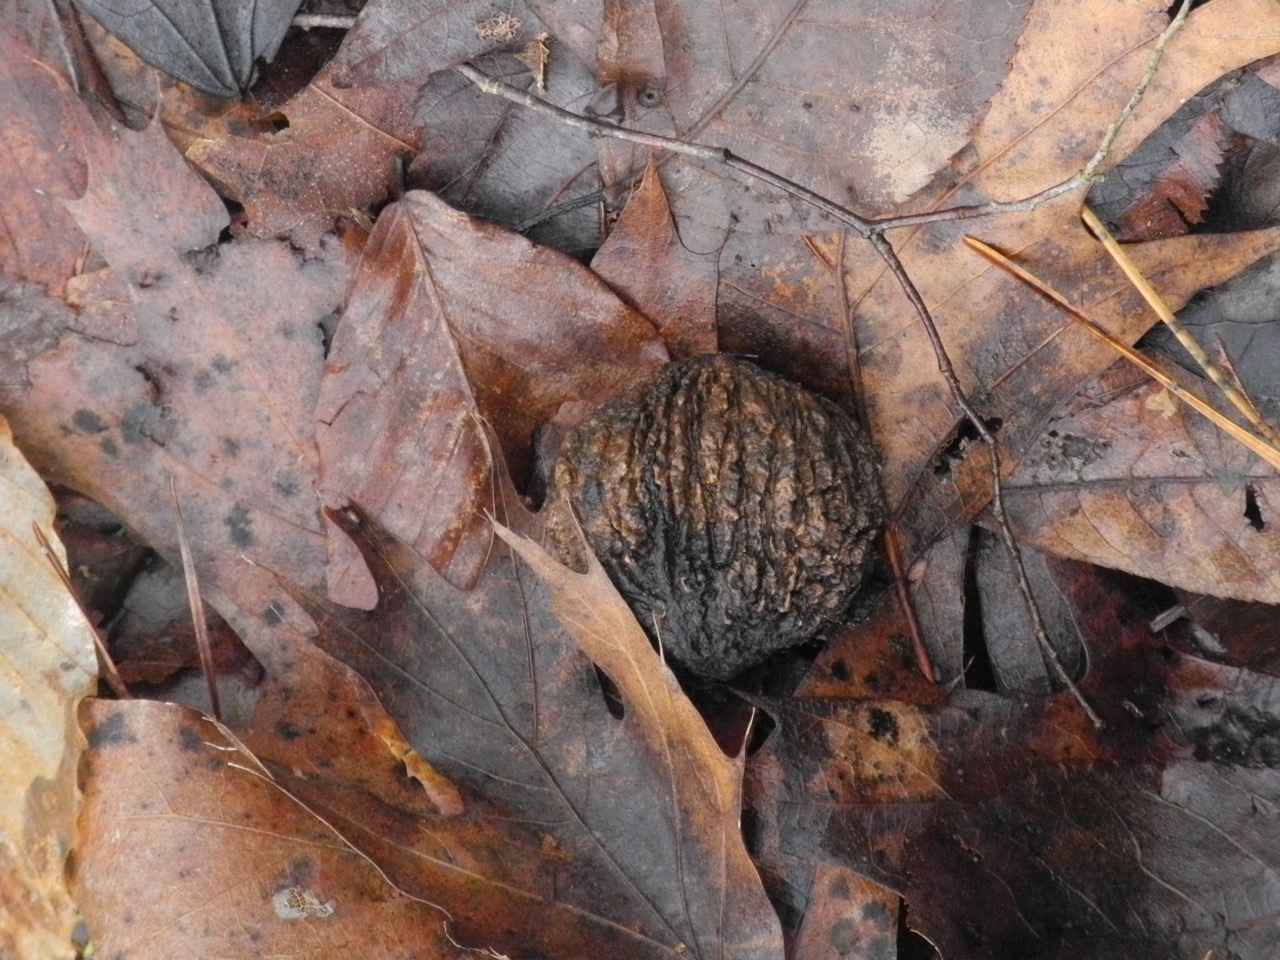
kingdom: Plantae
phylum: Tracheophyta
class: Magnoliopsida
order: Fagales
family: Juglandaceae
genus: Juglans
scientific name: Juglans nigra
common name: Black walnut
